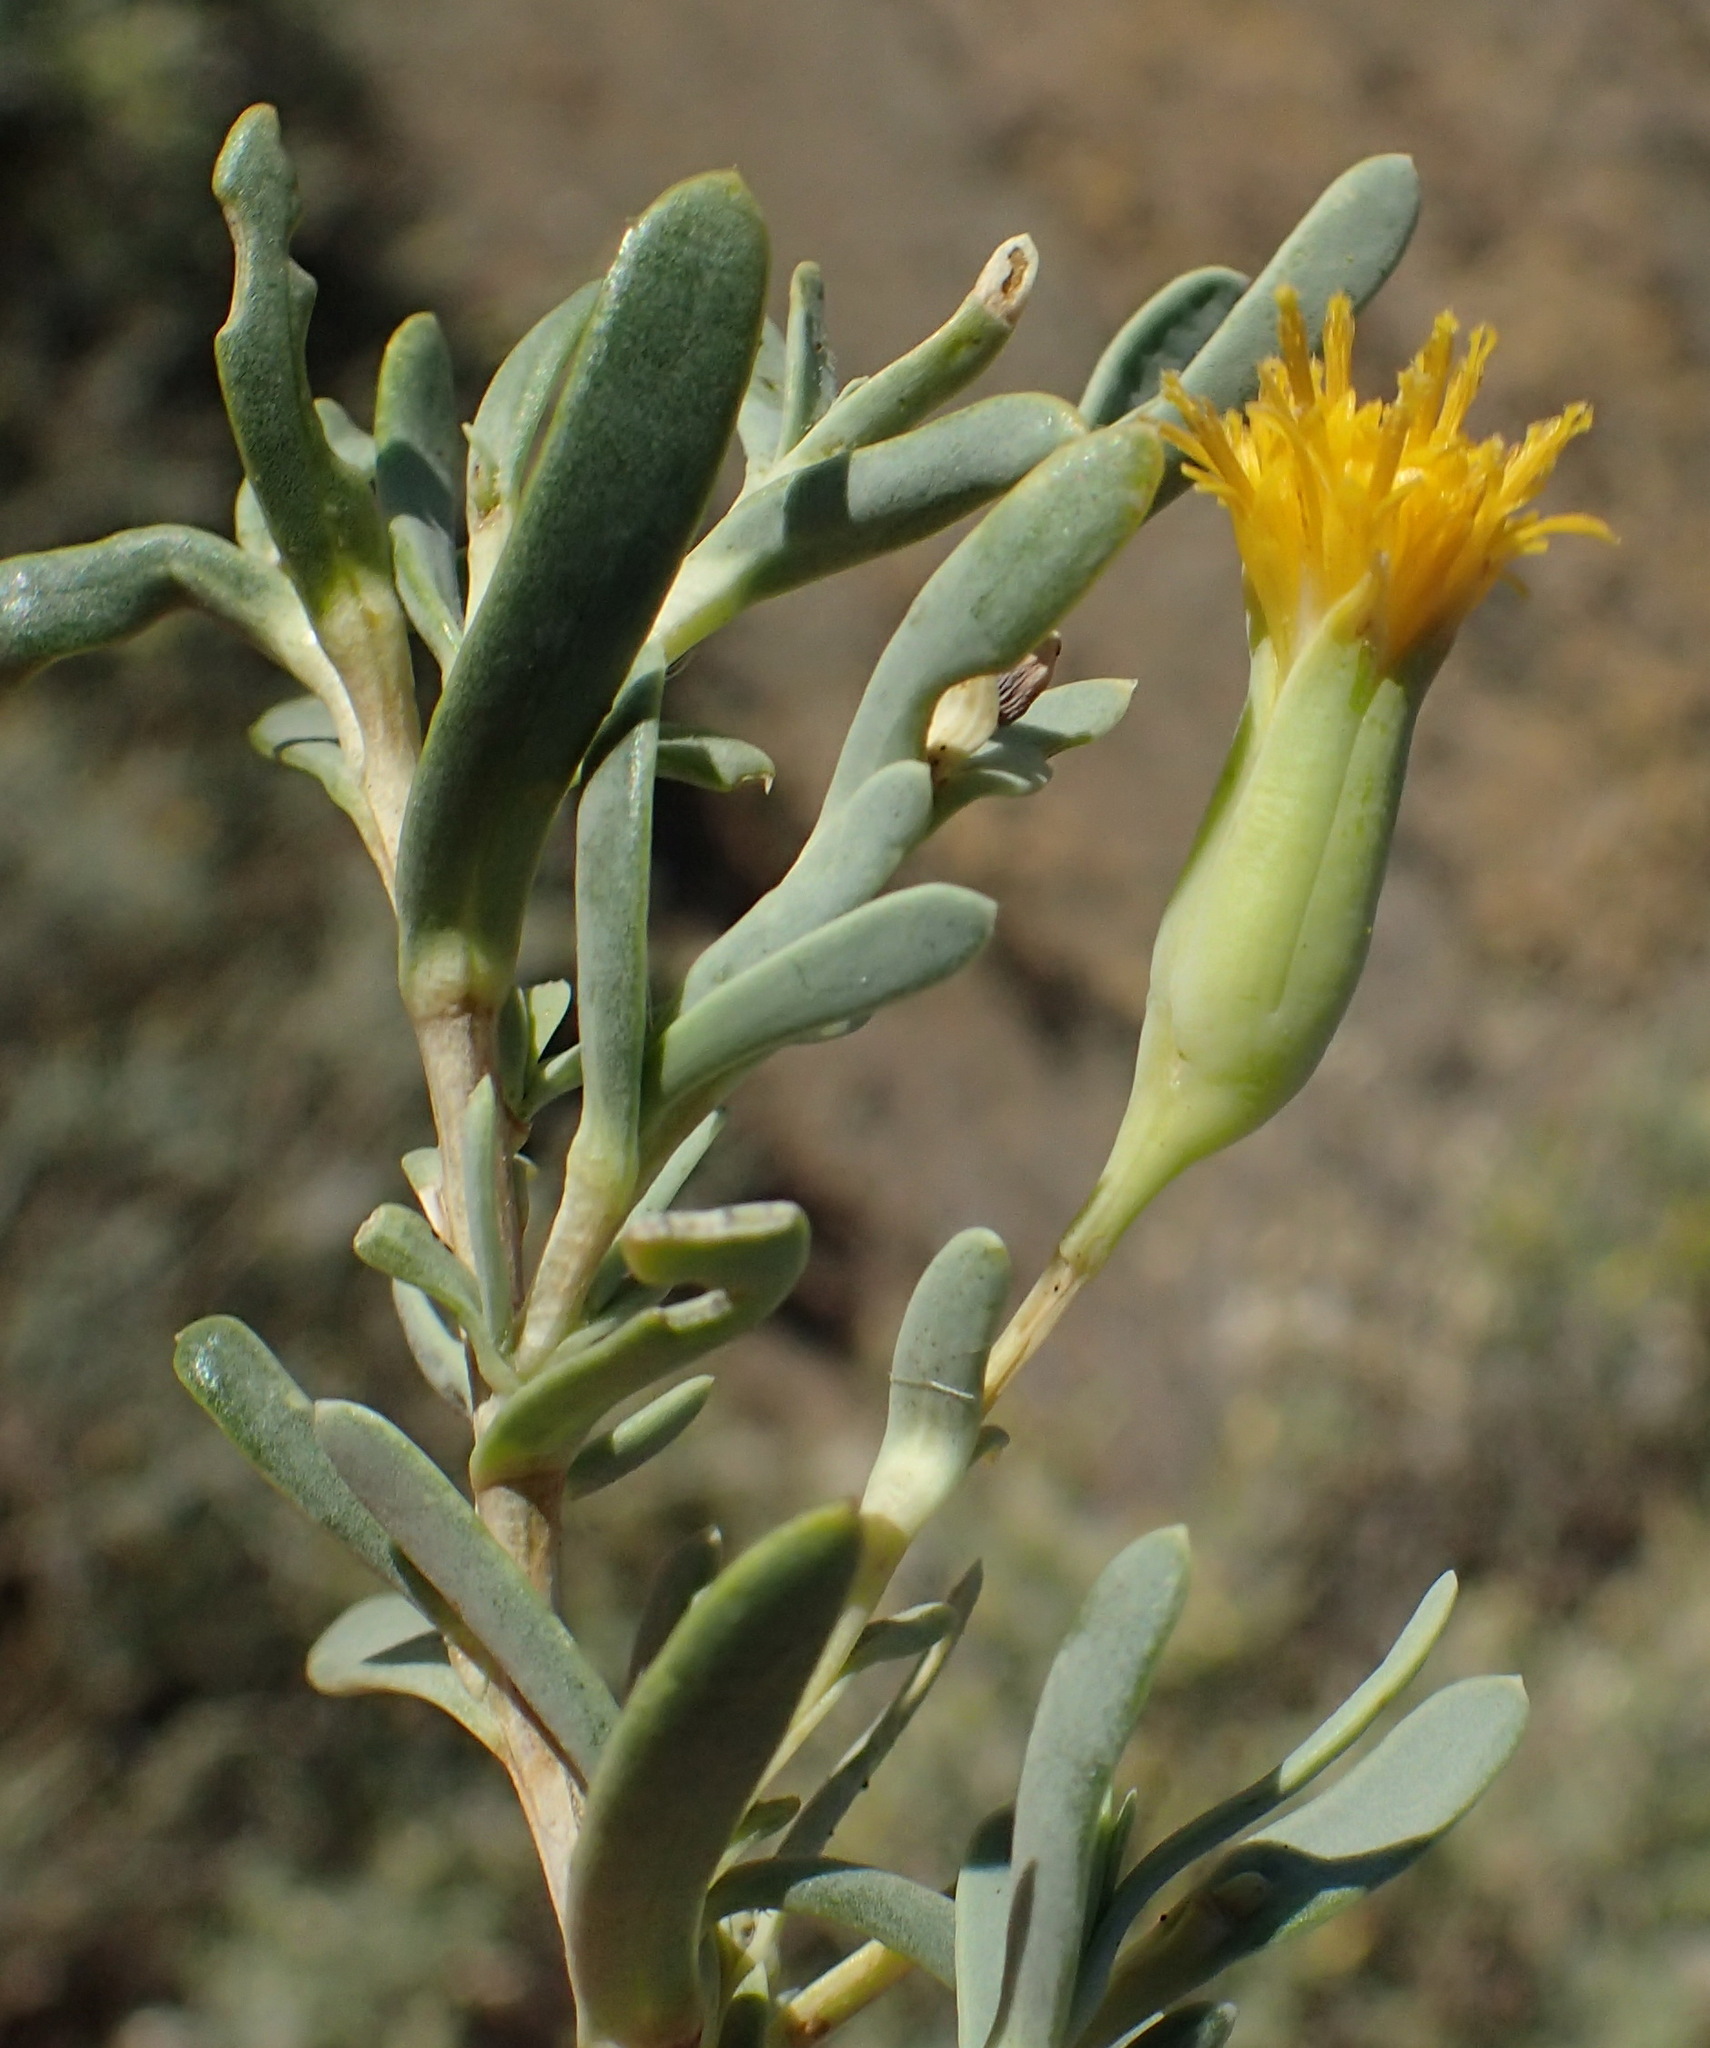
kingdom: Plantae
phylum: Tracheophyta
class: Magnoliopsida
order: Asterales
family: Asteraceae
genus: Hertia
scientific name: Hertia pallens
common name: Springbokbush
